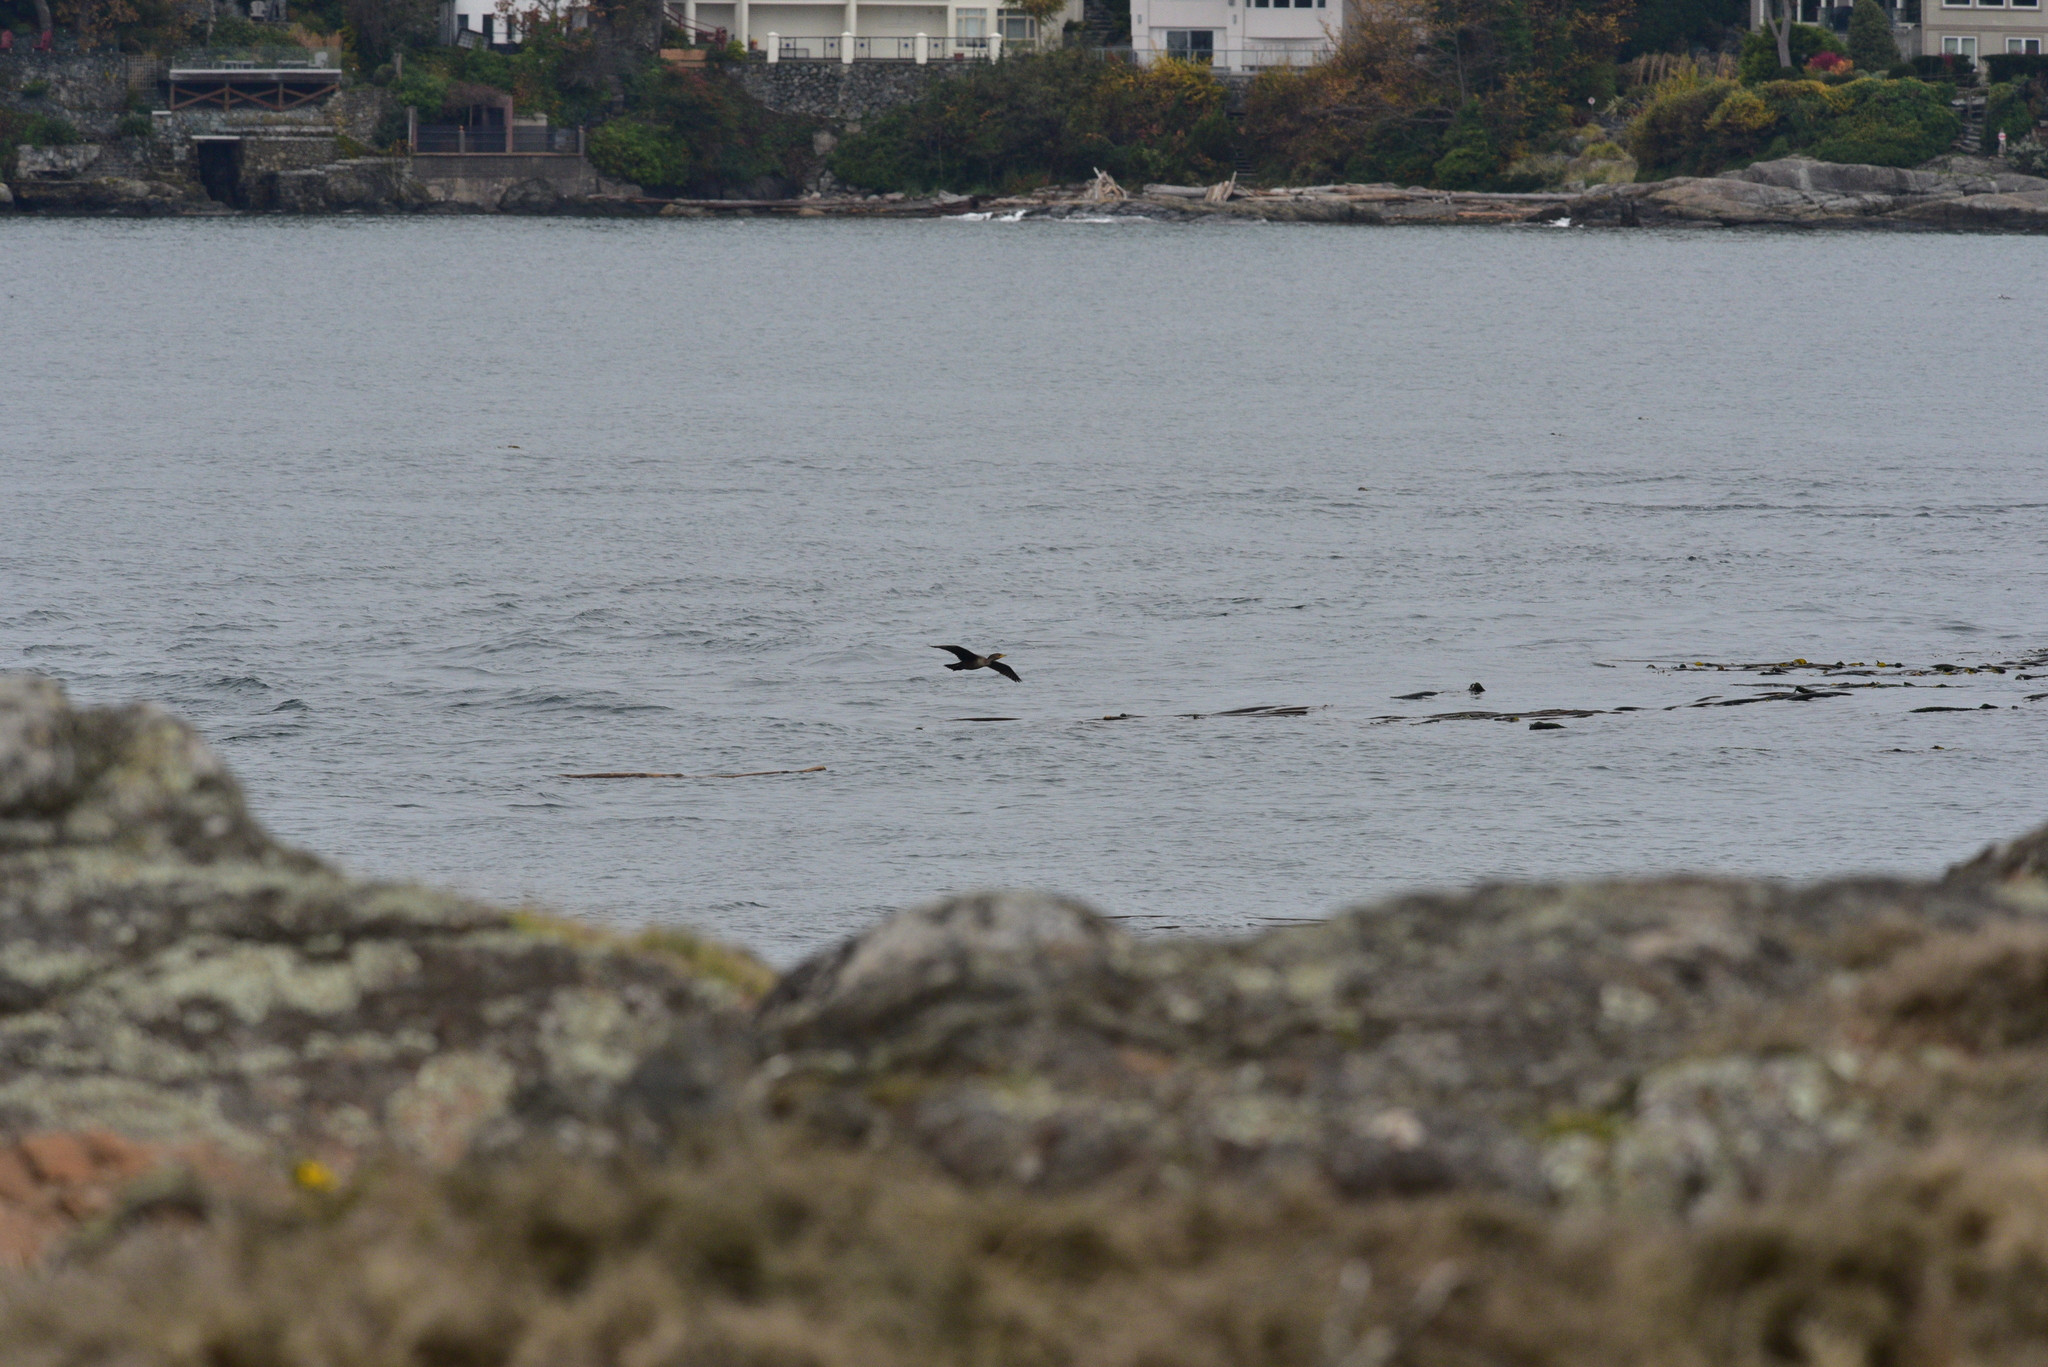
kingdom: Animalia
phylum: Chordata
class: Aves
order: Suliformes
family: Phalacrocoracidae
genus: Phalacrocorax
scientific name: Phalacrocorax auritus
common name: Double-crested cormorant
